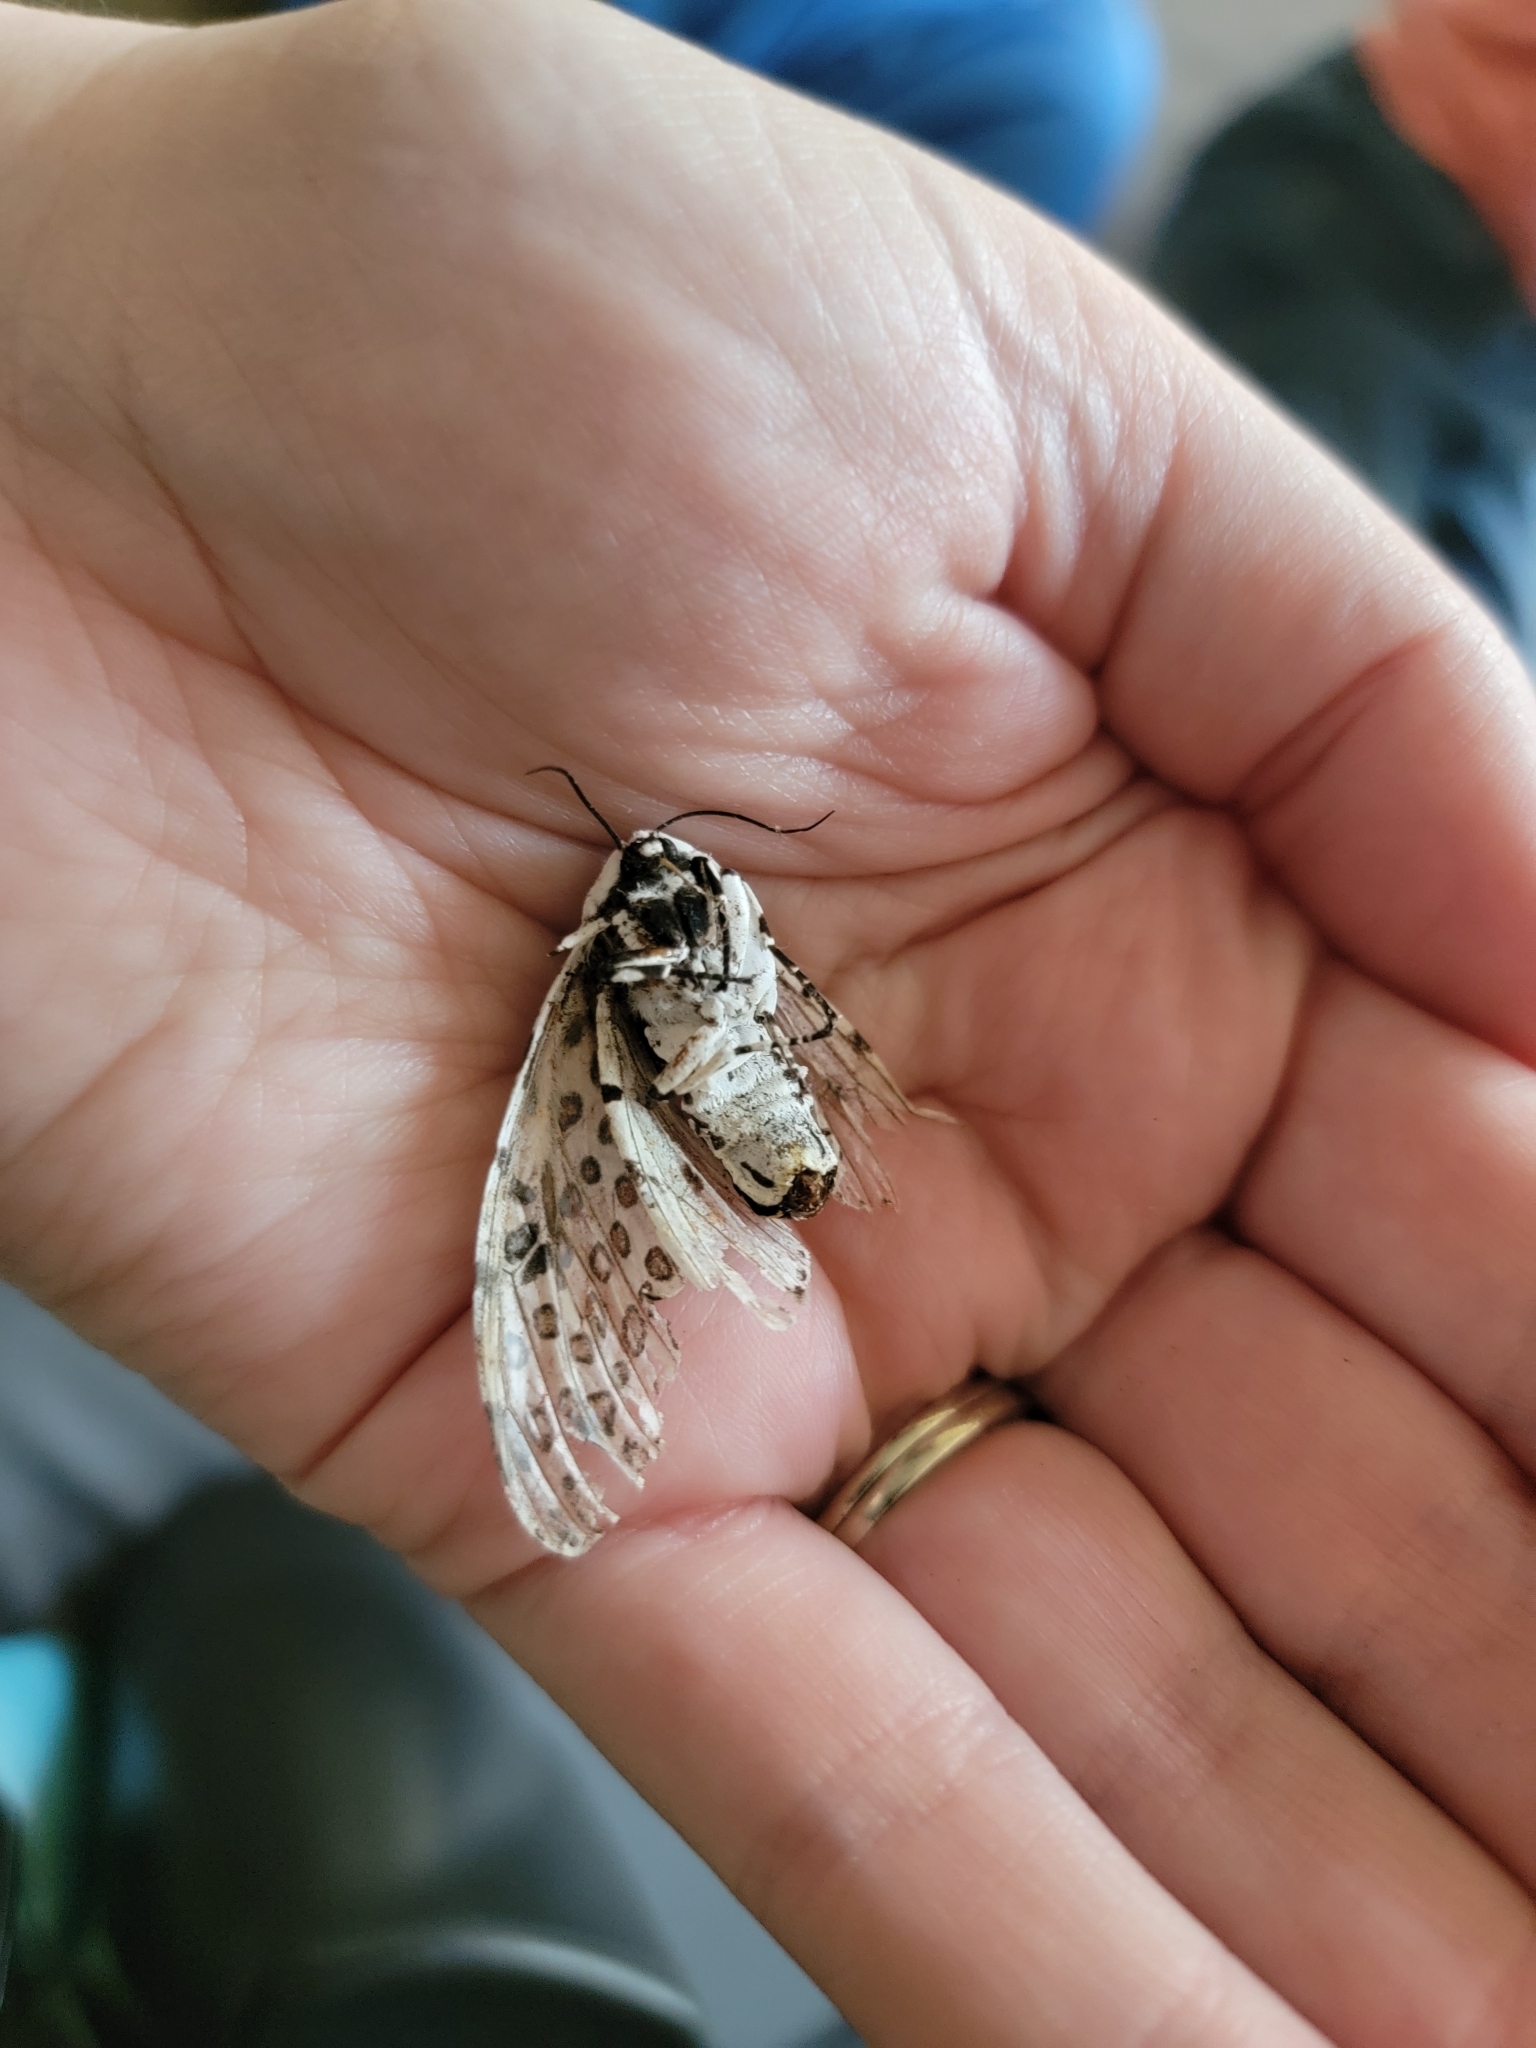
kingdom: Animalia
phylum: Arthropoda
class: Insecta
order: Lepidoptera
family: Erebidae
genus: Hypercompe
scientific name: Hypercompe scribonia
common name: Giant leopard moth
